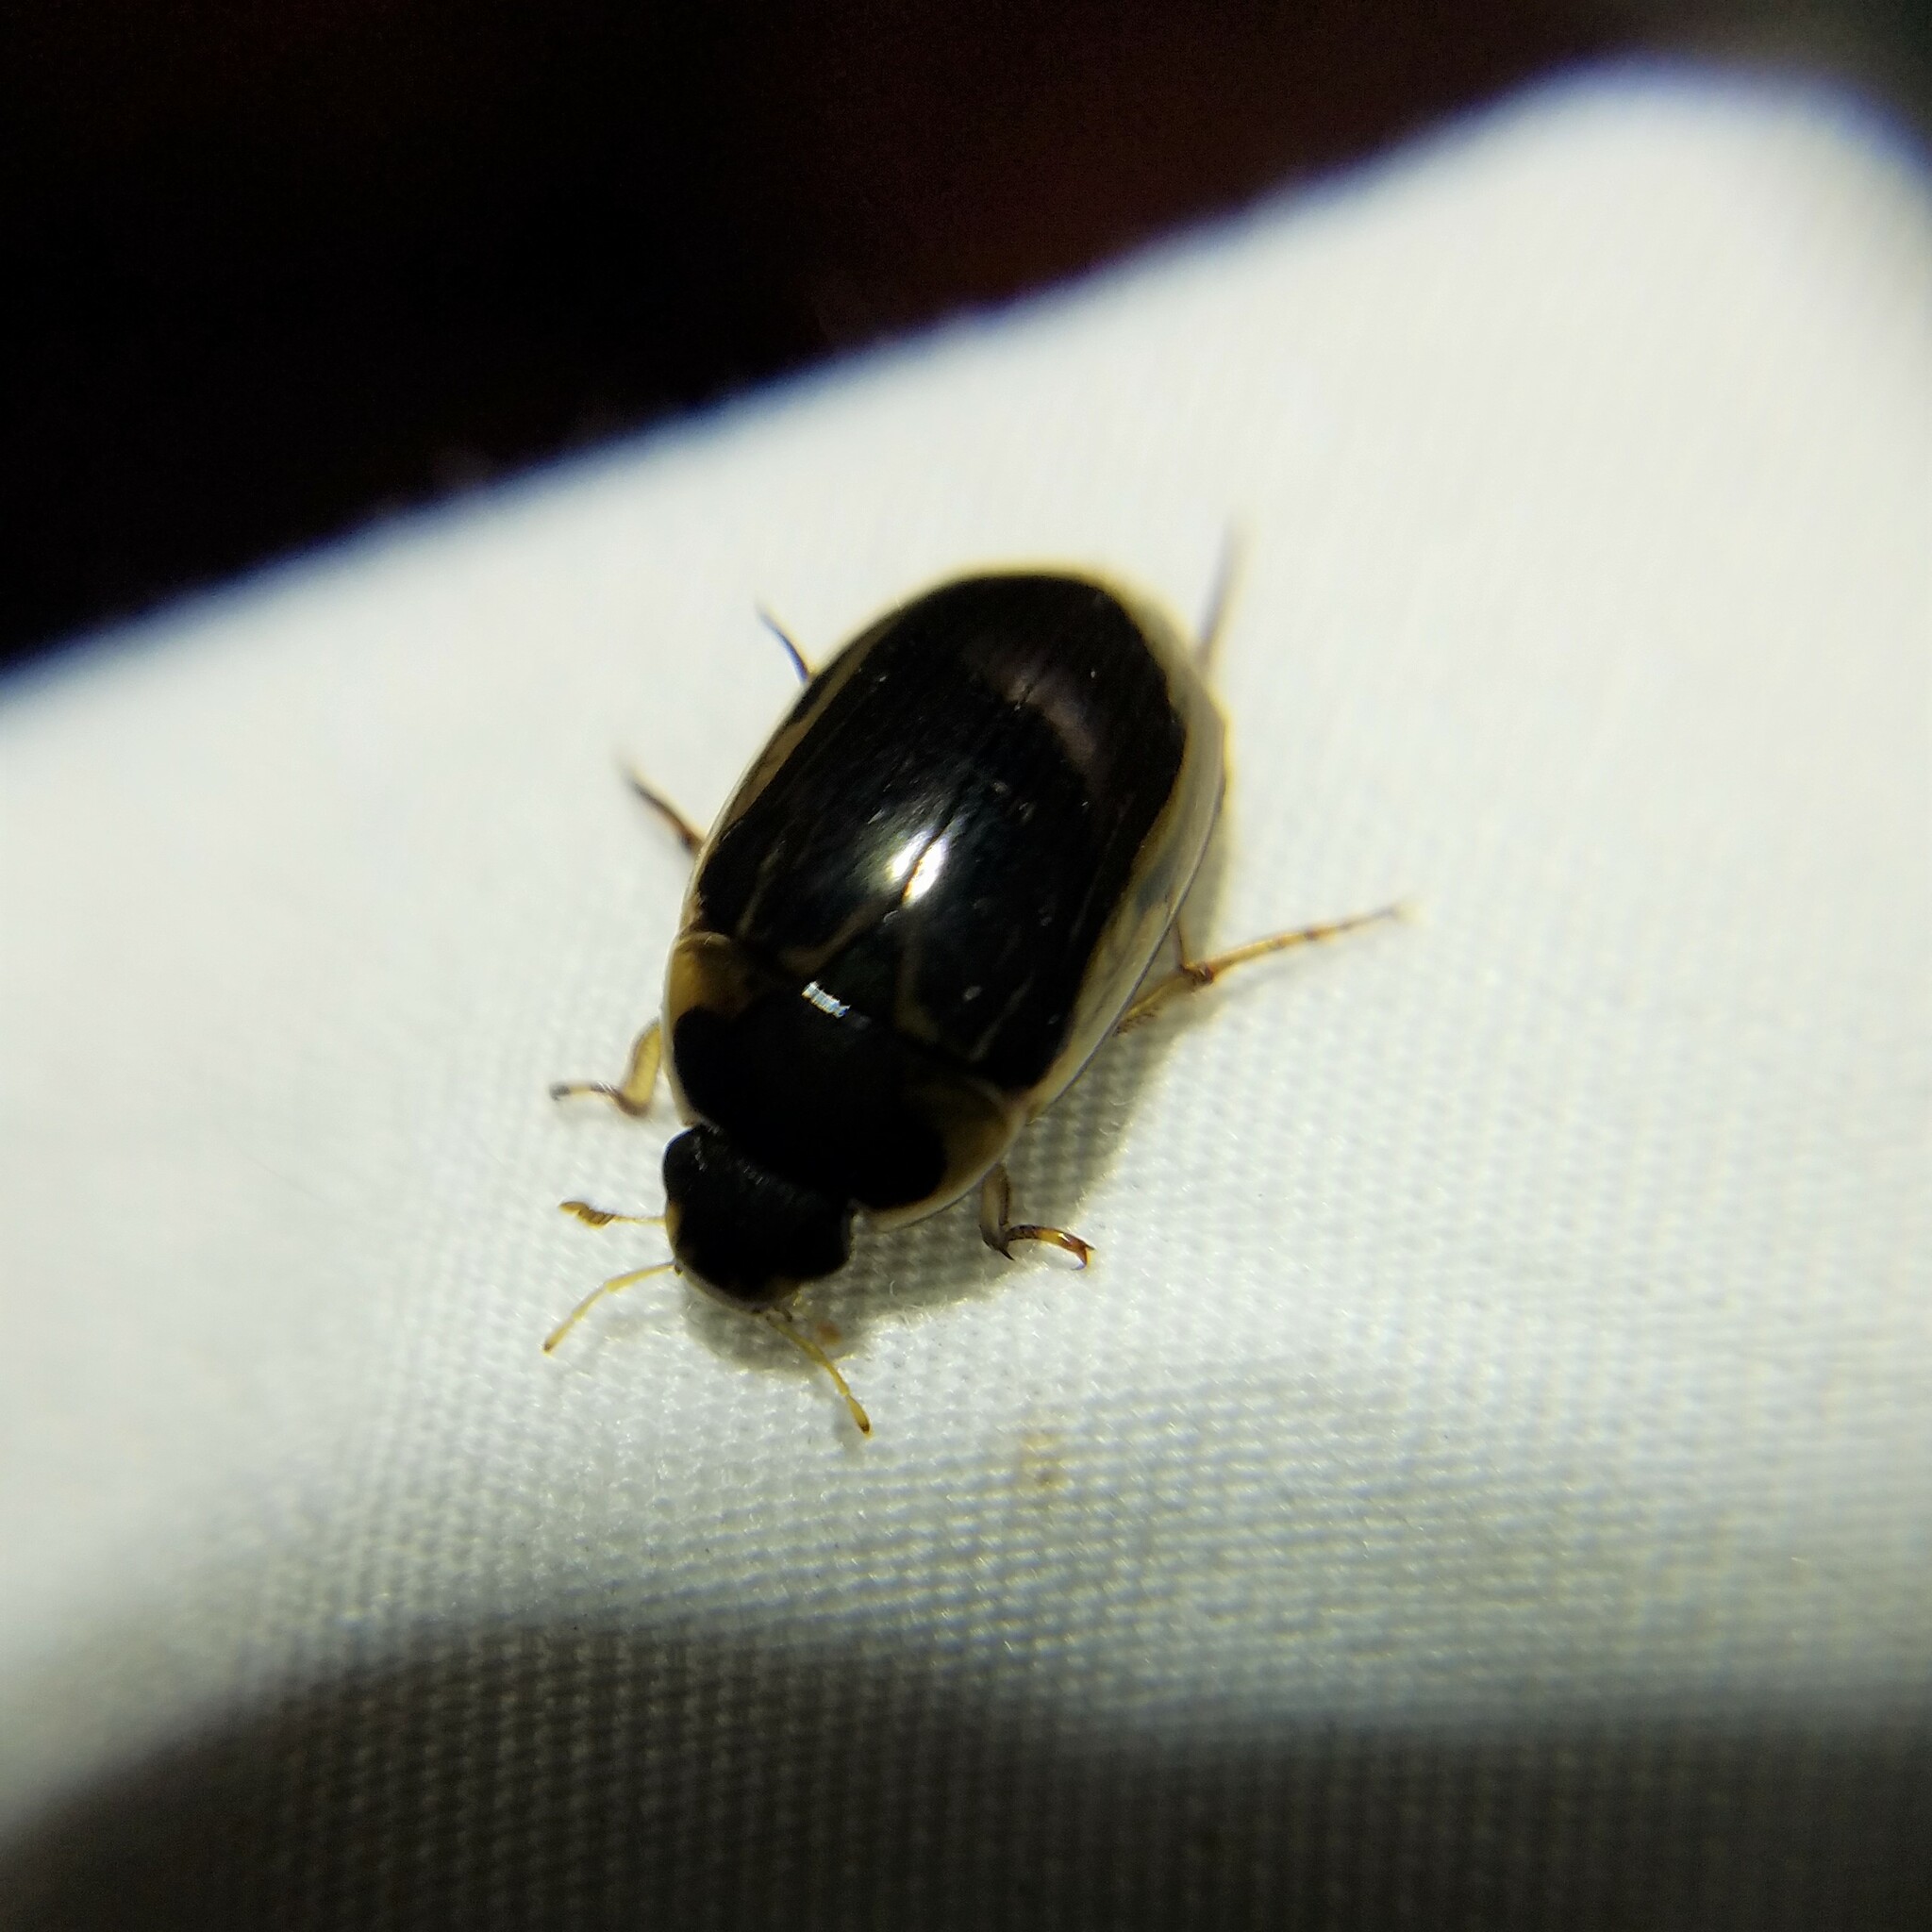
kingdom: Animalia
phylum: Arthropoda
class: Insecta
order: Coleoptera
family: Hydrophilidae
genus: Tropisternus
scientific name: Tropisternus collaris
